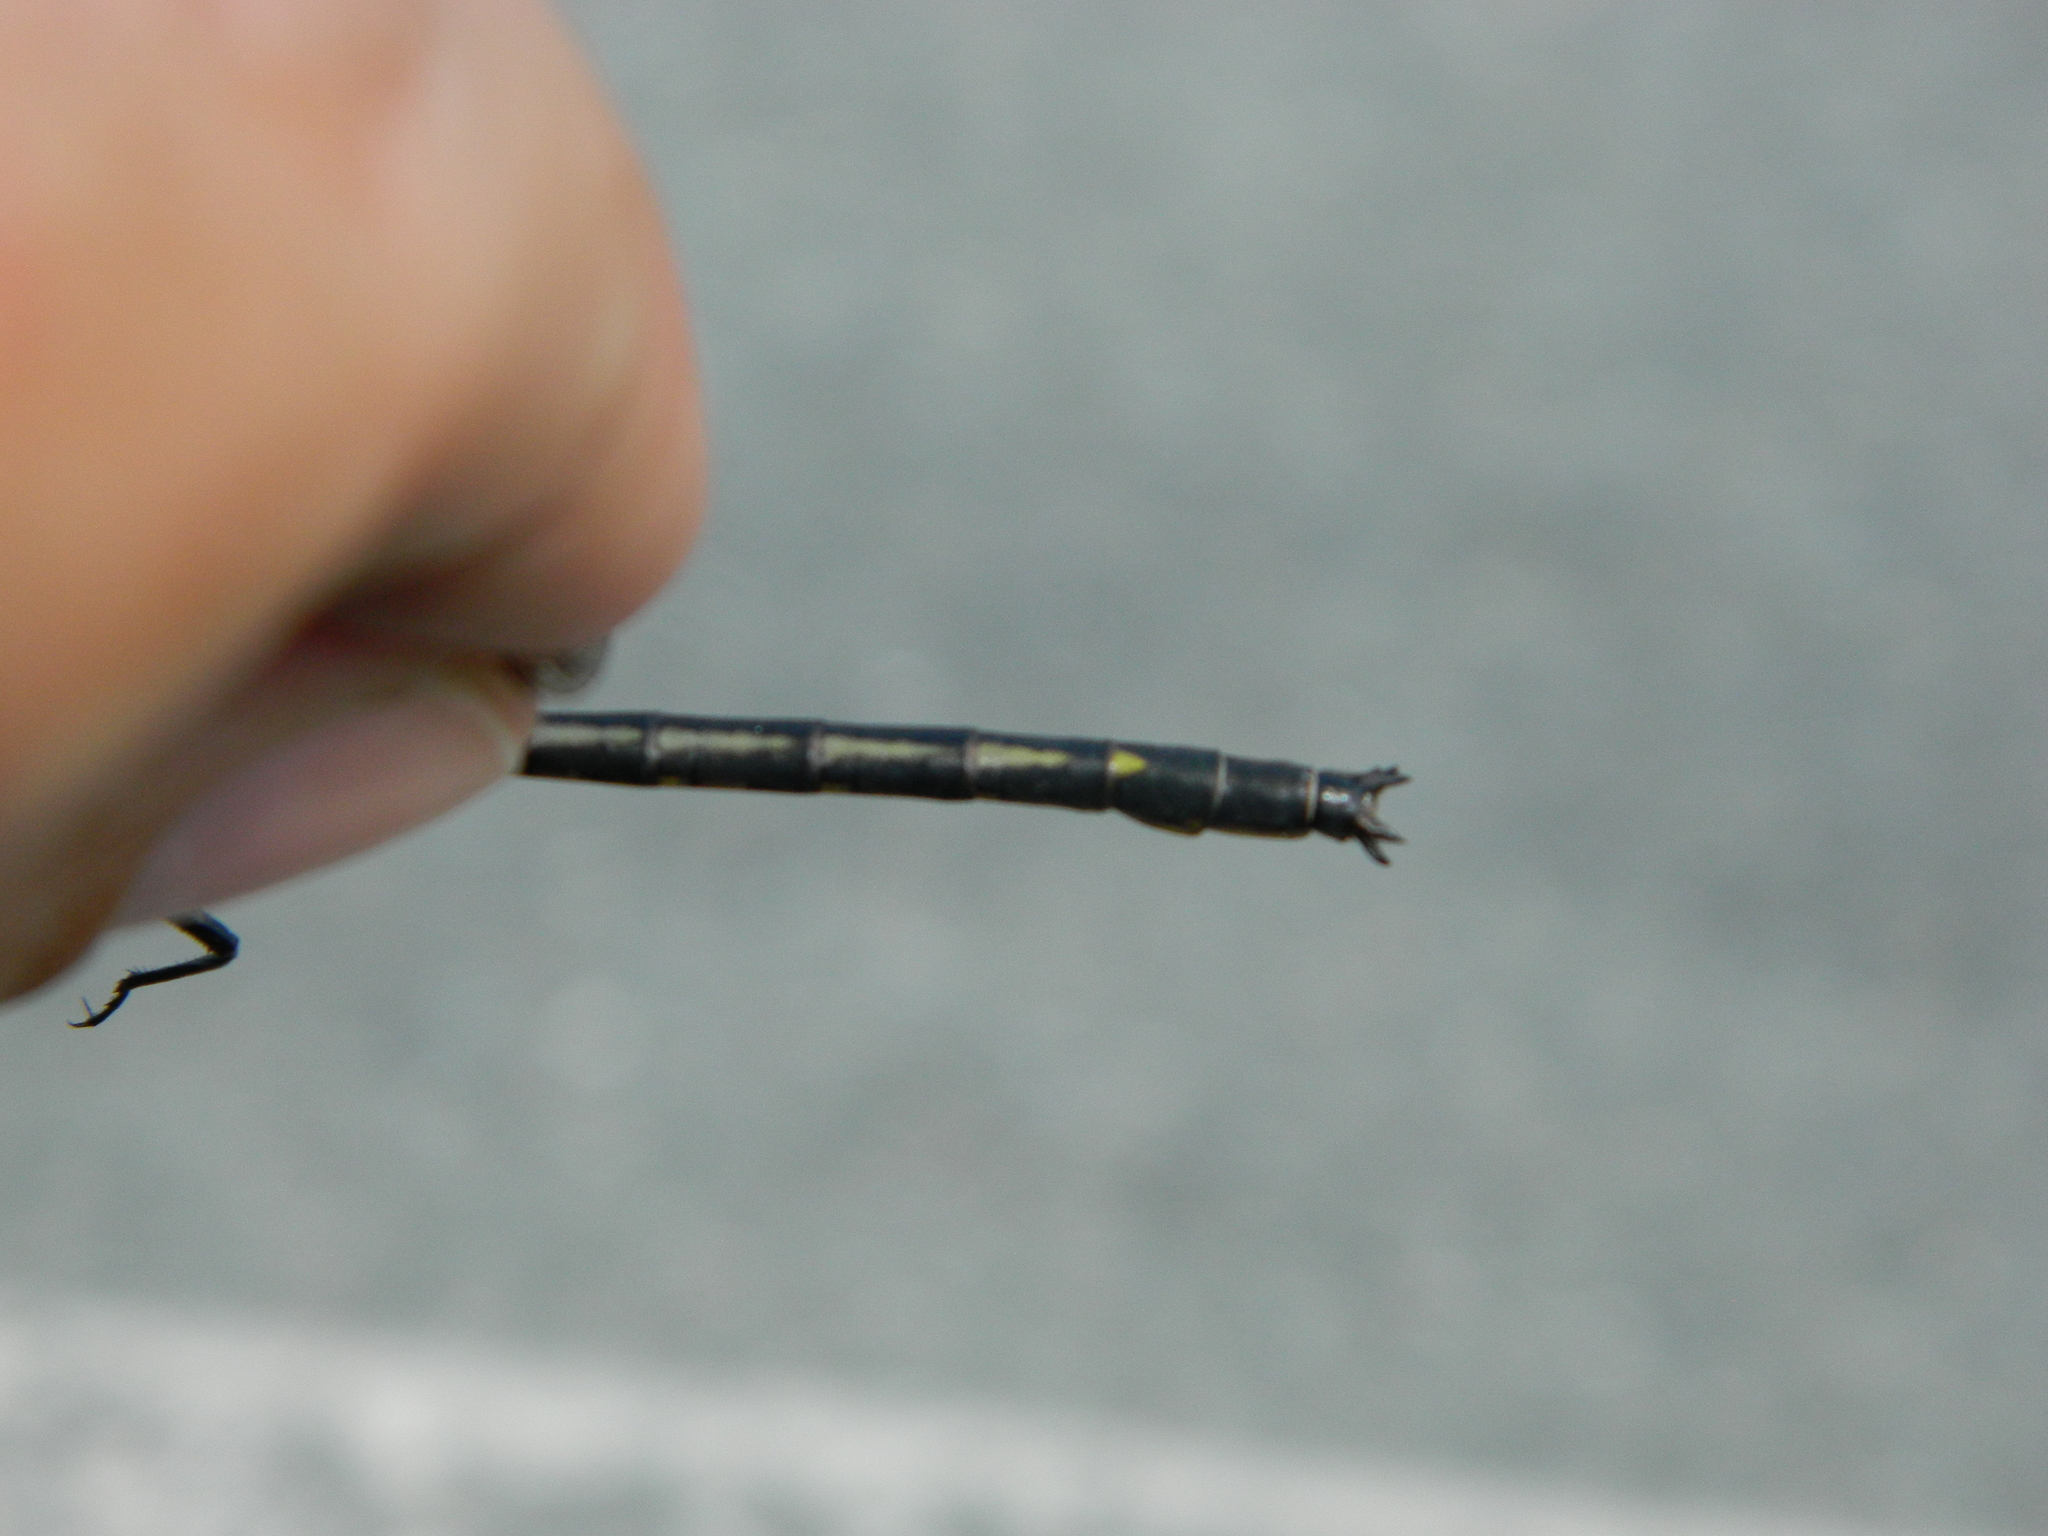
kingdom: Animalia
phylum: Arthropoda
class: Insecta
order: Odonata
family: Gomphidae
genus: Phanogomphus
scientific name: Phanogomphus spicatus
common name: Dusky clubtail
